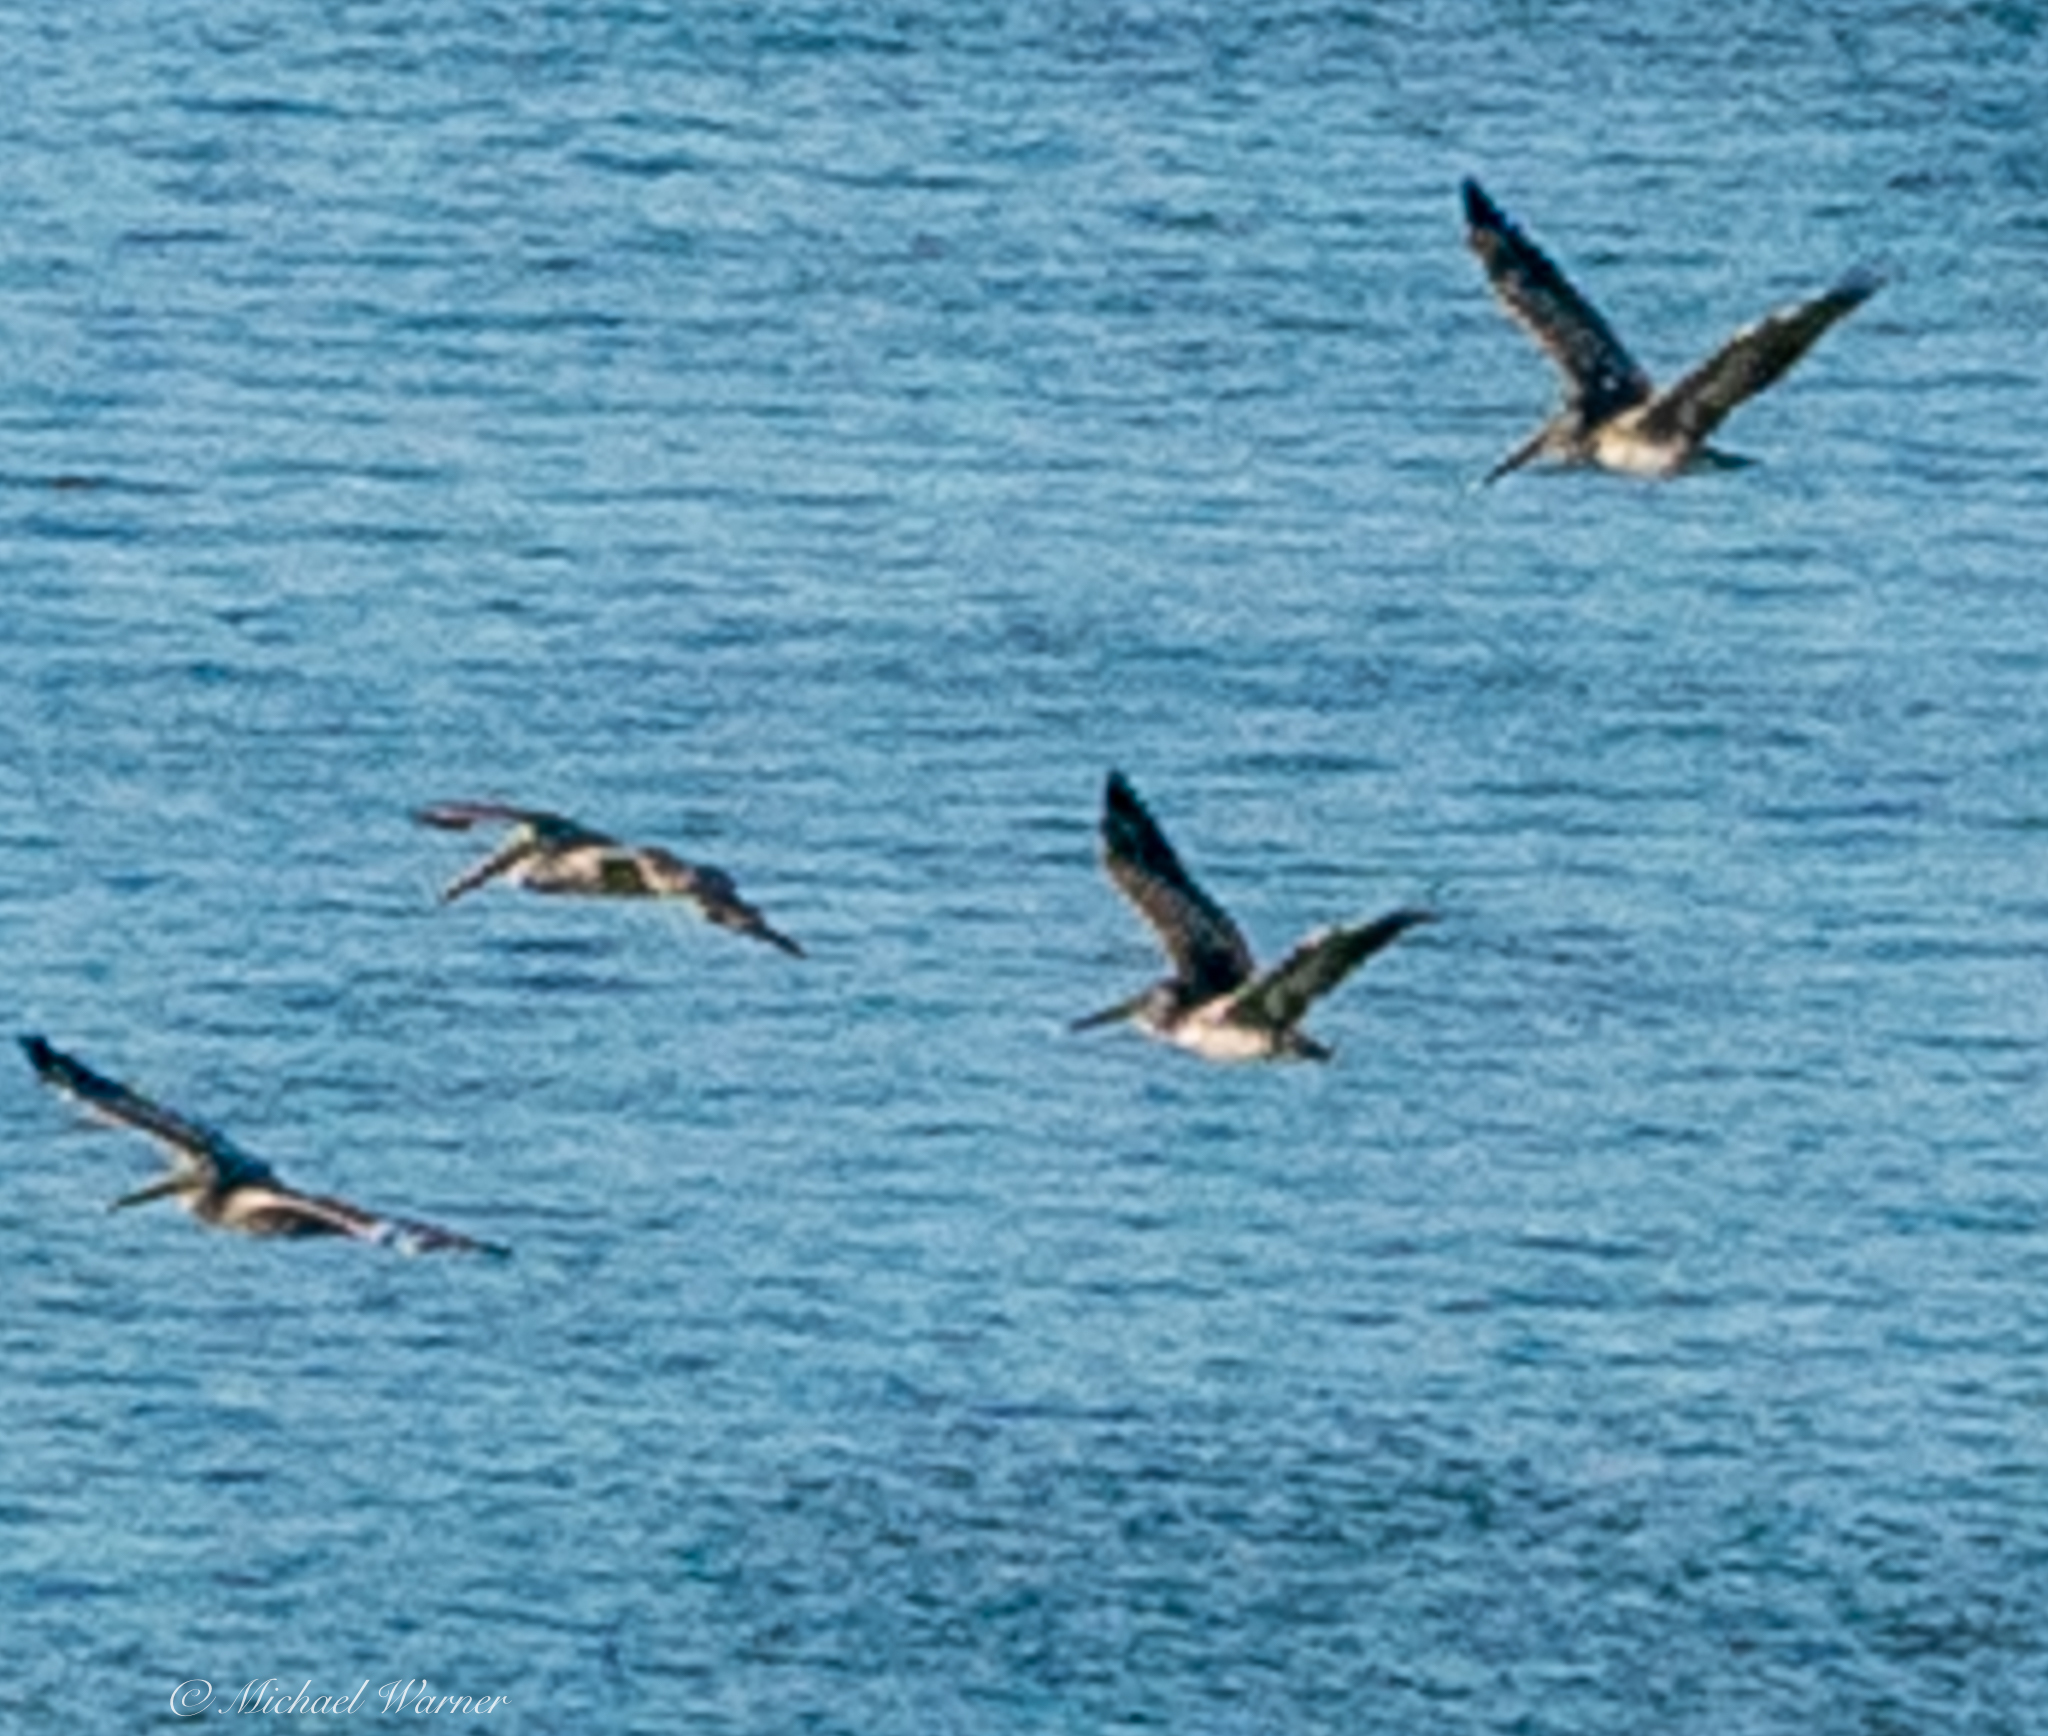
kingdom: Animalia
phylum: Chordata
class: Aves
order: Pelecaniformes
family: Pelecanidae
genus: Pelecanus
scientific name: Pelecanus occidentalis
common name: Brown pelican
